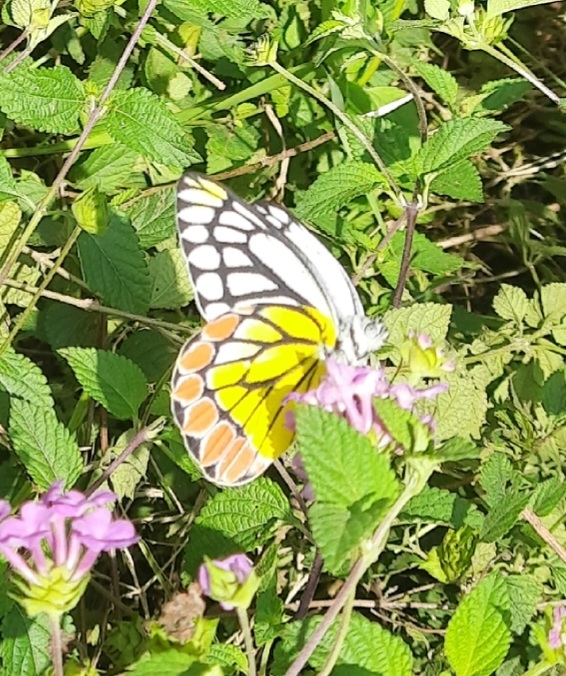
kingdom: Animalia
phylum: Arthropoda
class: Insecta
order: Lepidoptera
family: Pieridae
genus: Delias
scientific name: Delias eucharis
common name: Common jezebel
